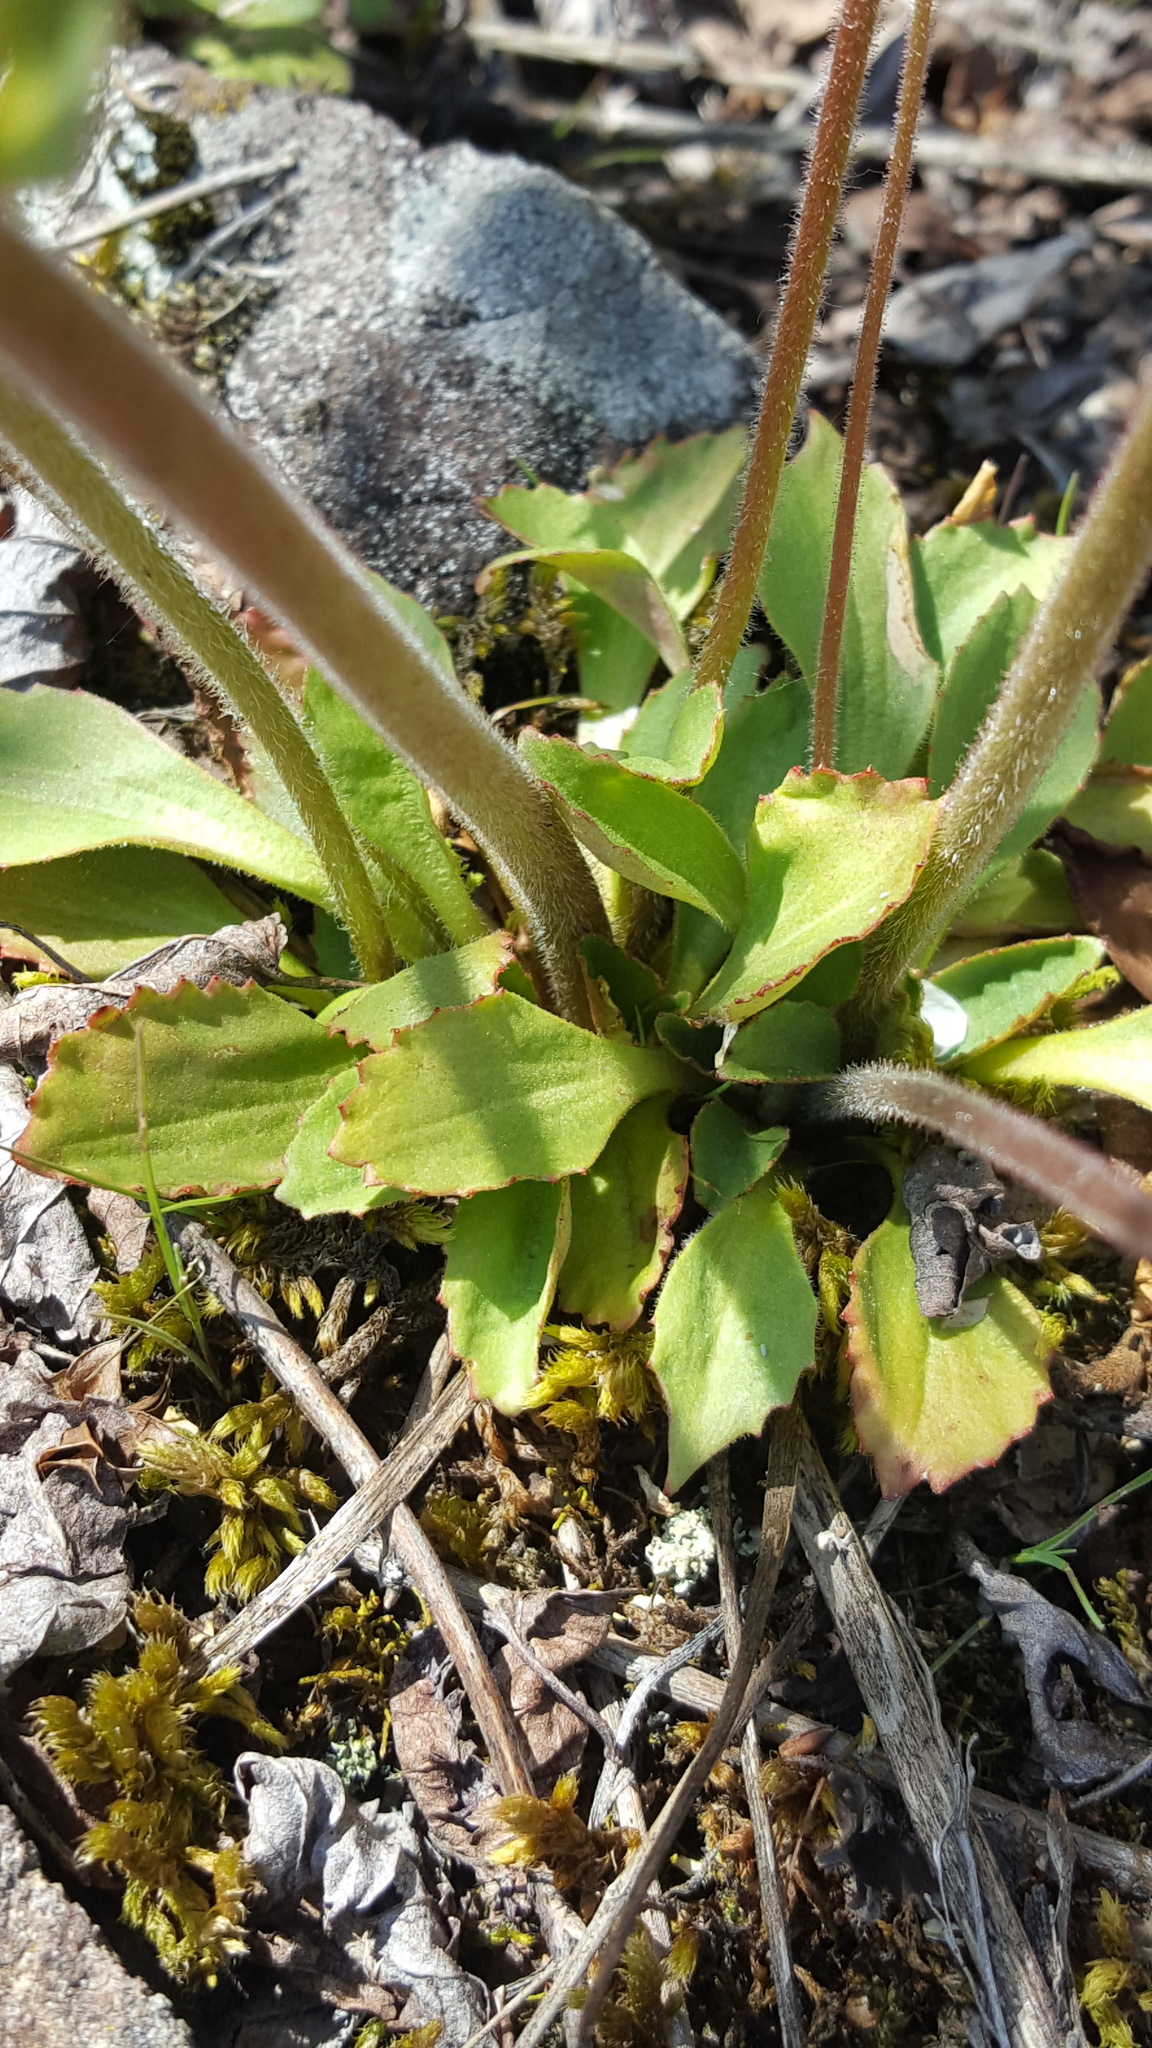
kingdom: Plantae
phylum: Tracheophyta
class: Magnoliopsida
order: Saxifragales
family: Saxifragaceae
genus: Micranthes
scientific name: Micranthes virginiensis
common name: Early saxifrage
